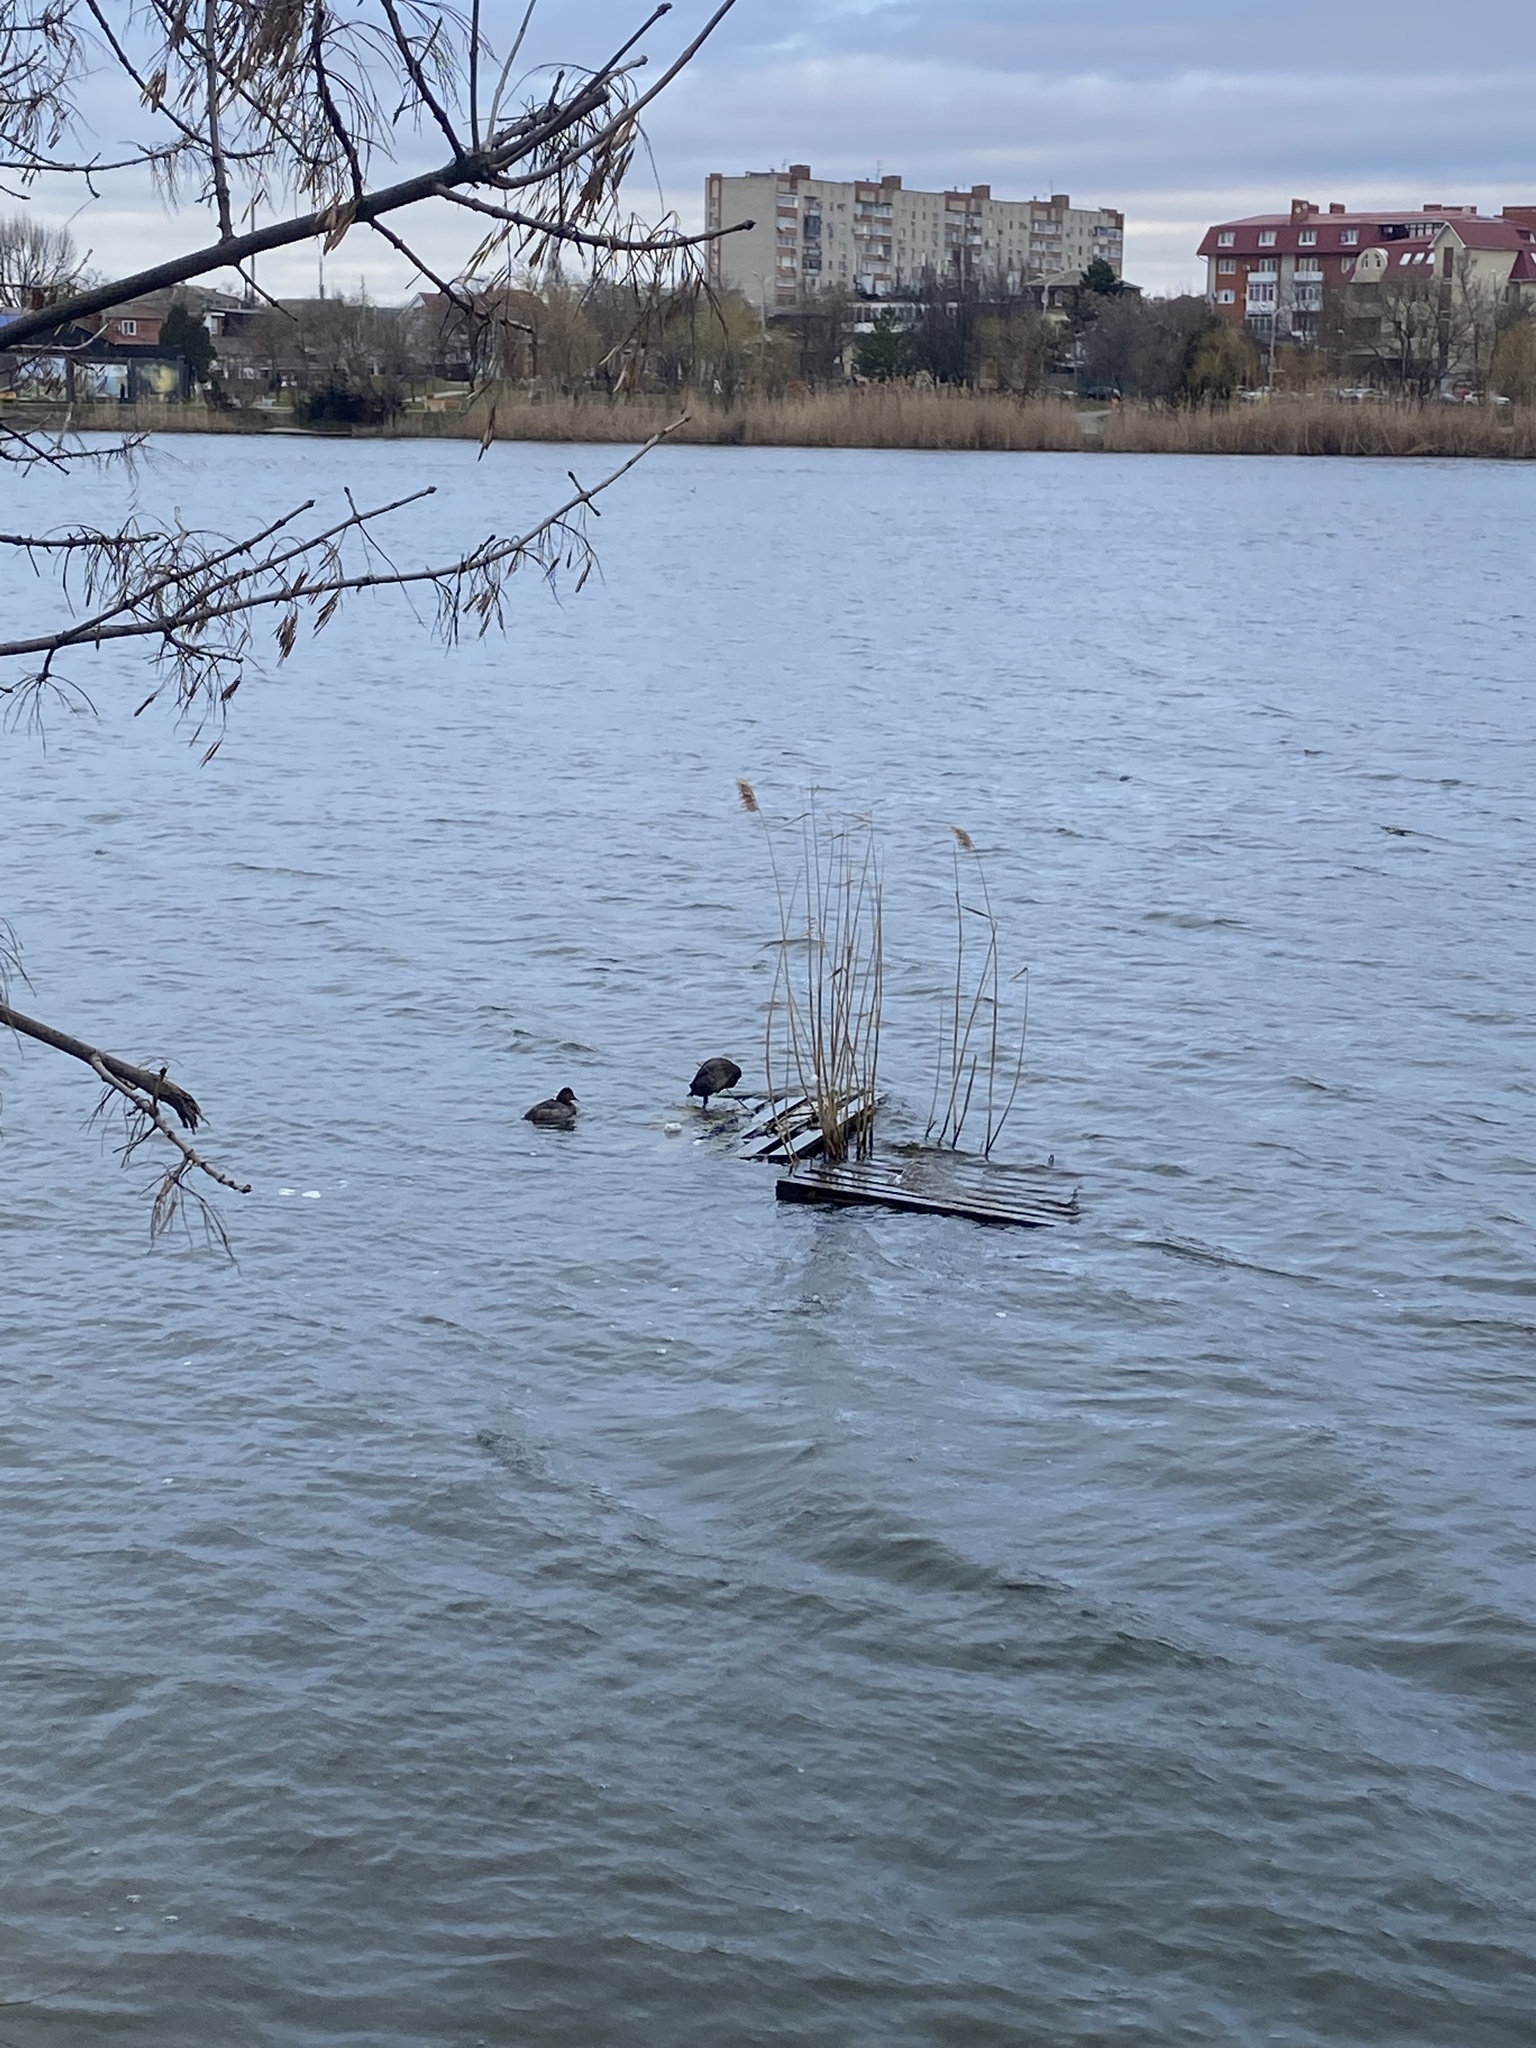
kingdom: Animalia
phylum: Chordata
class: Aves
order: Anseriformes
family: Anatidae
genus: Aythya
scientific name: Aythya ferina
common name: Common pochard
